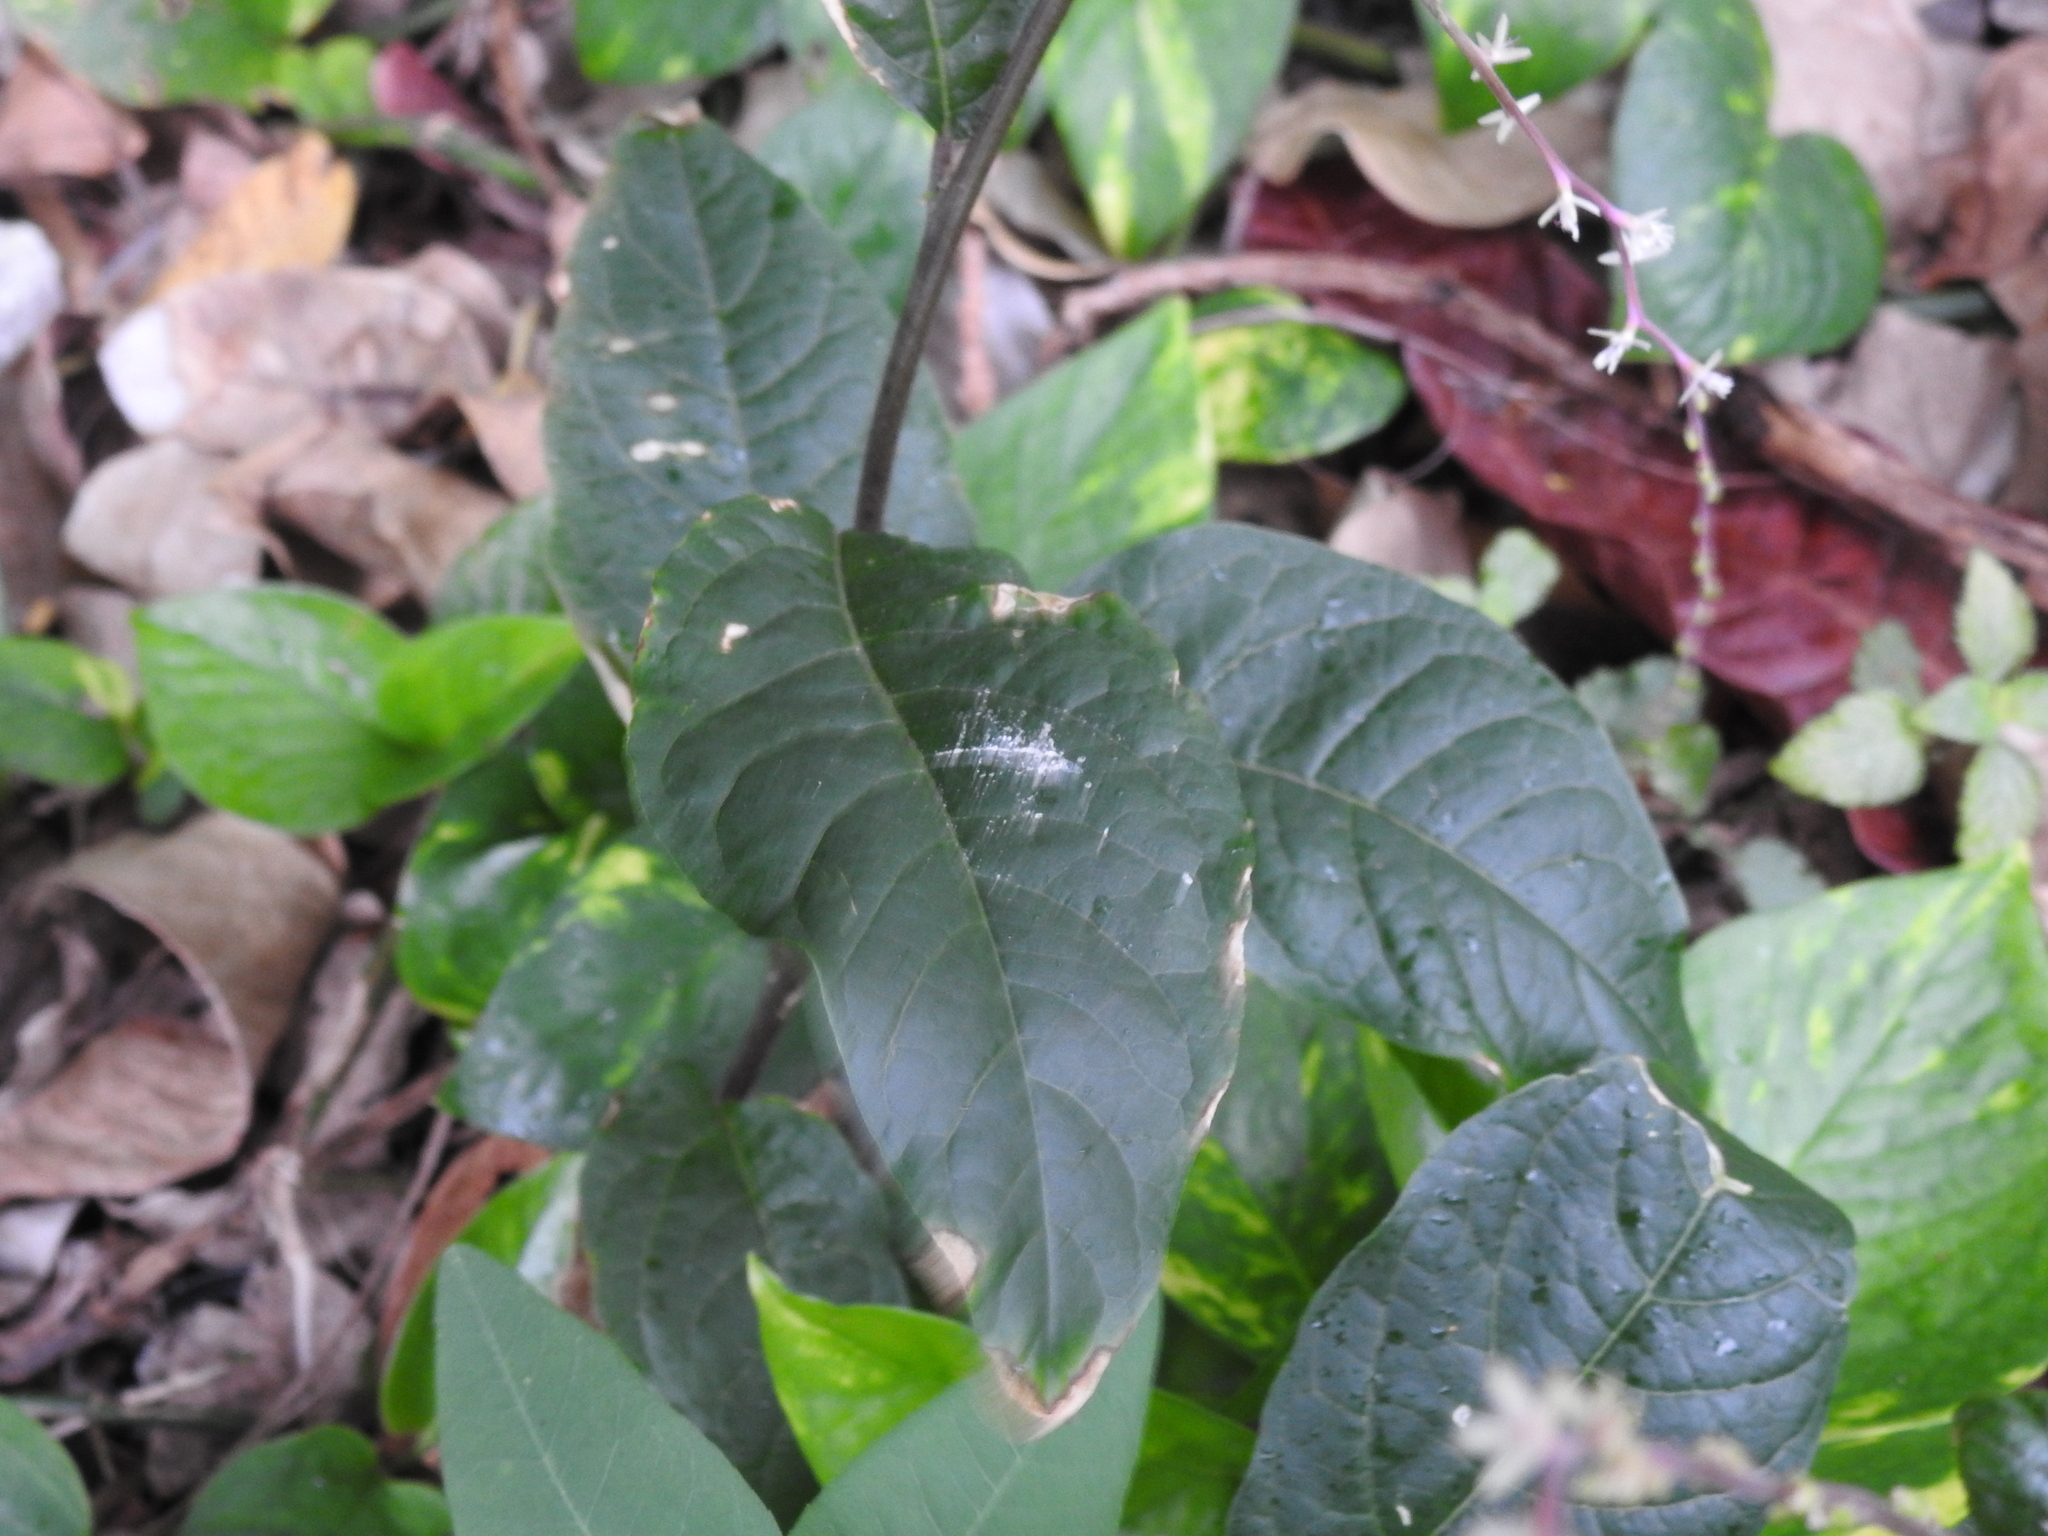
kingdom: Plantae
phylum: Tracheophyta
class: Magnoliopsida
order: Caryophyllales
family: Phytolaccaceae
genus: Petiveria
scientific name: Petiveria alliacea
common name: Garlicweed
